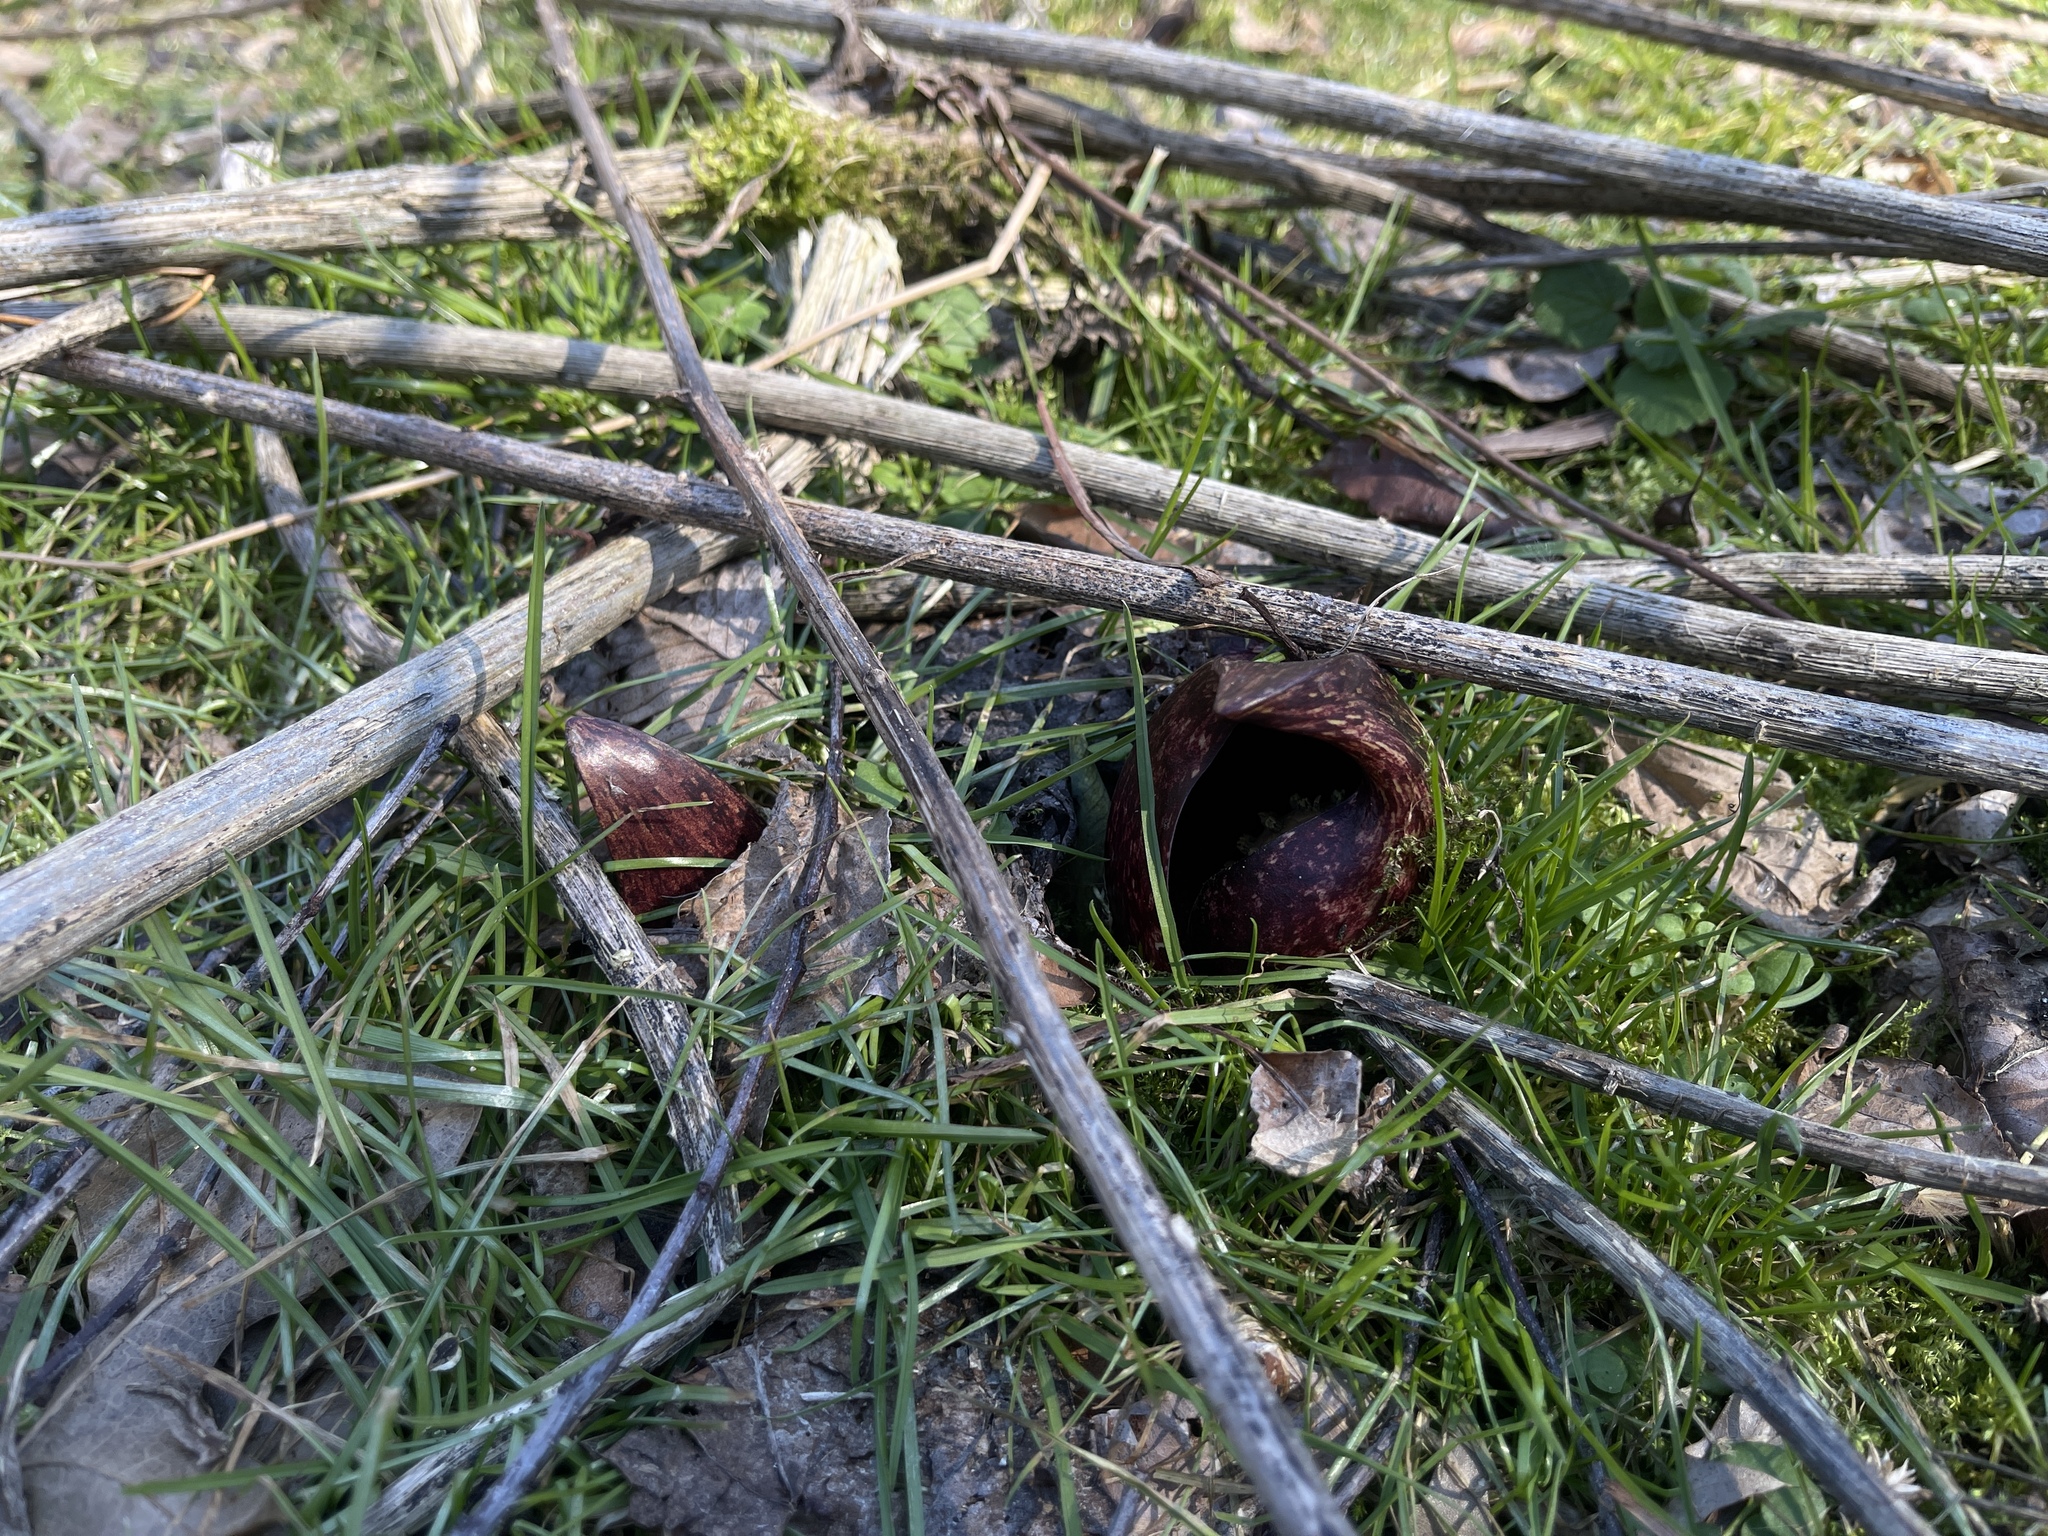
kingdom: Plantae
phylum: Tracheophyta
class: Liliopsida
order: Alismatales
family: Araceae
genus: Symplocarpus
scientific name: Symplocarpus foetidus
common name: Eastern skunk cabbage
